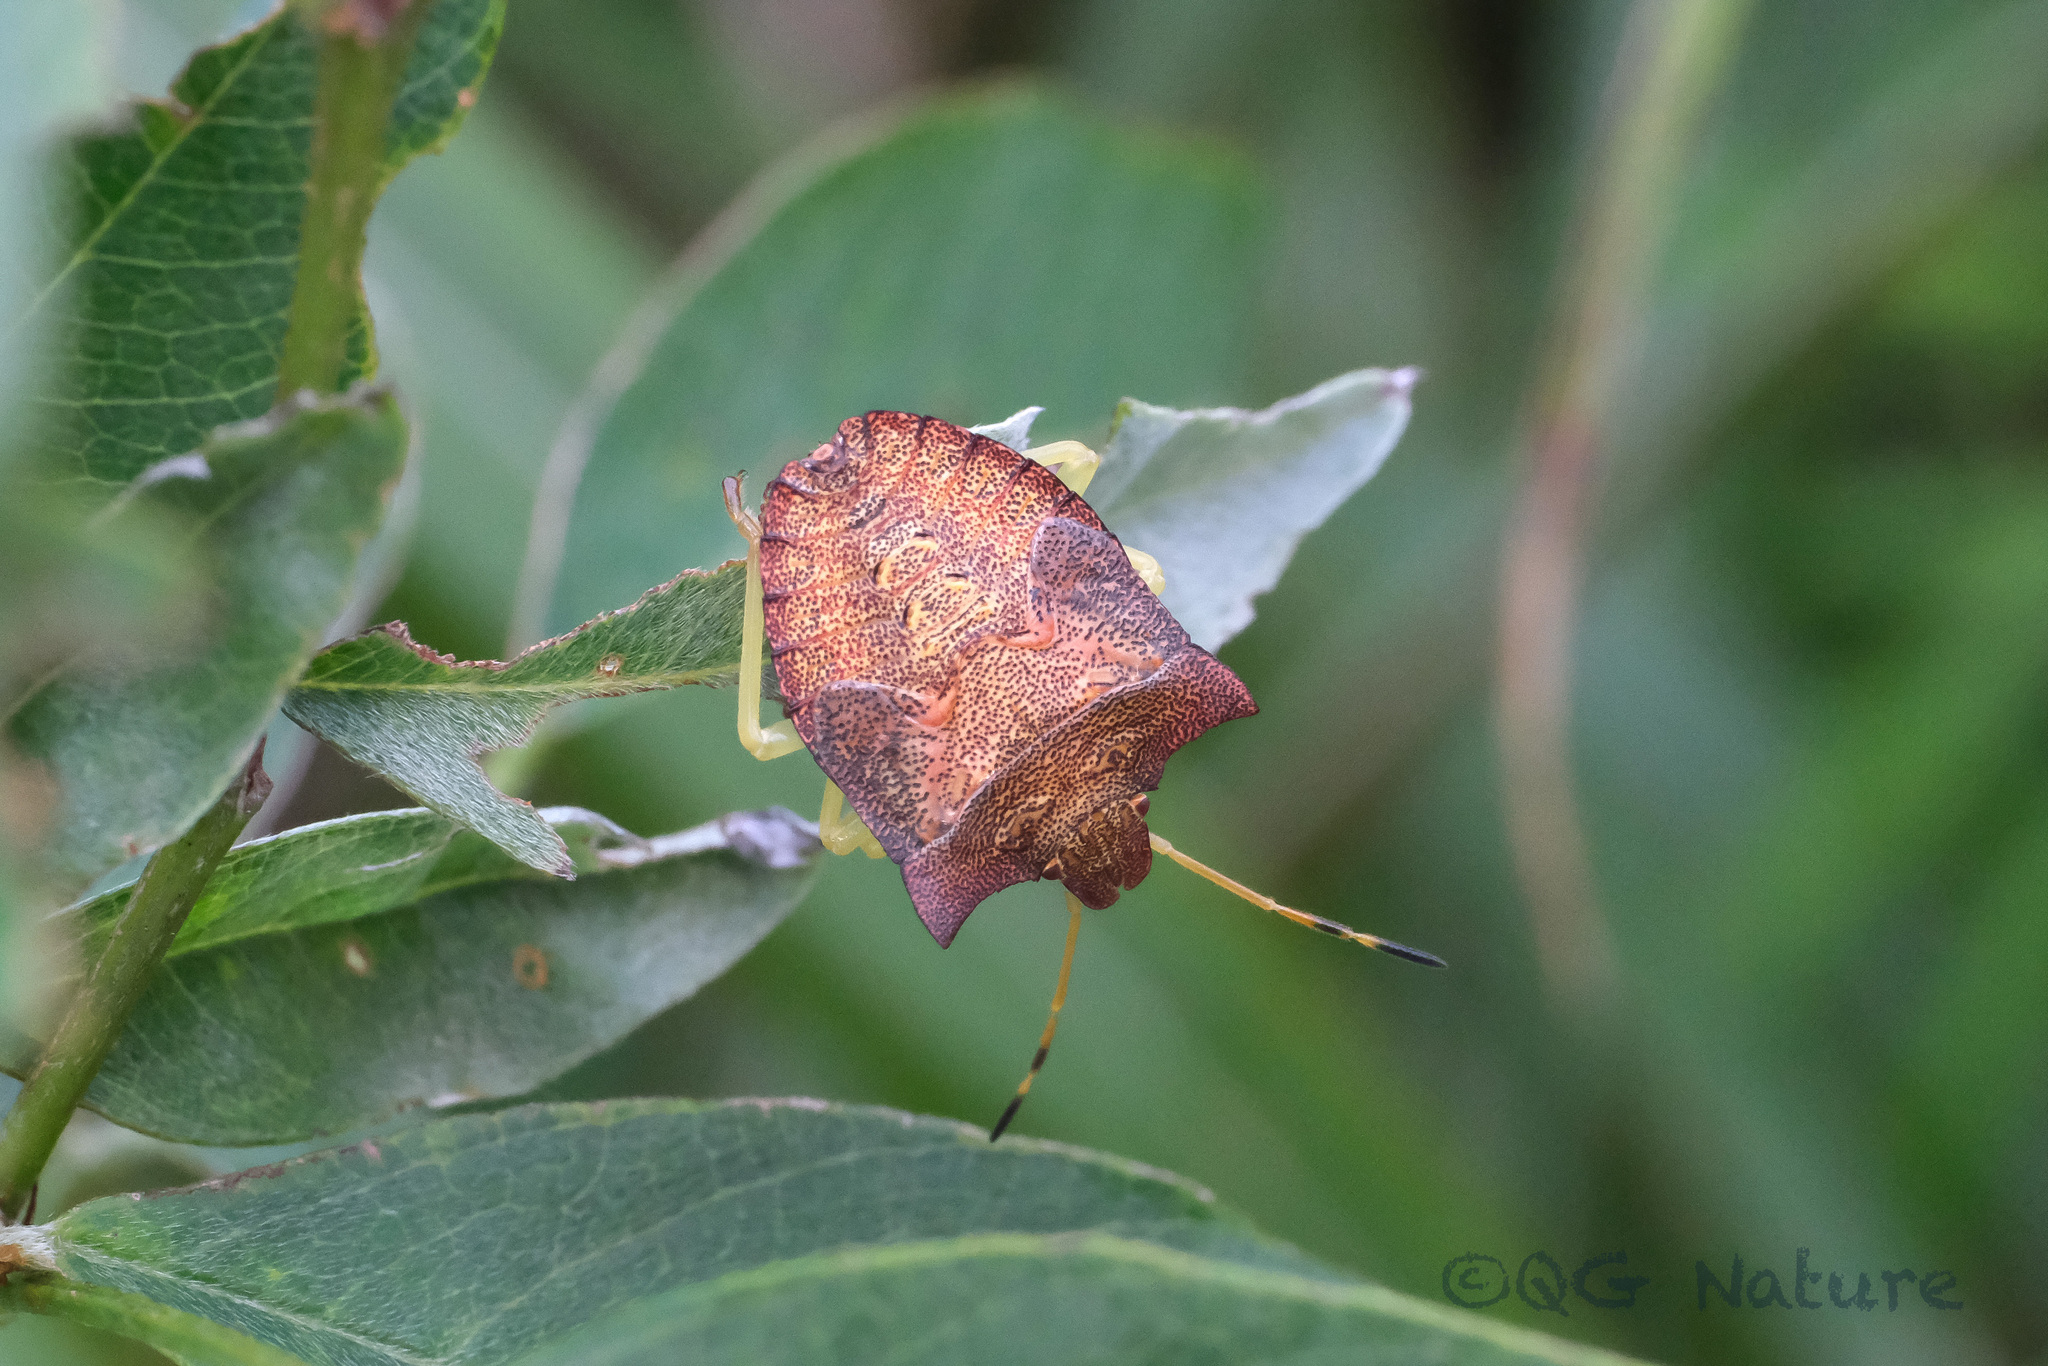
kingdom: Animalia
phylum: Arthropoda
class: Insecta
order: Hemiptera
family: Pentatomidae
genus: Lelia
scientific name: Lelia decempunctata
